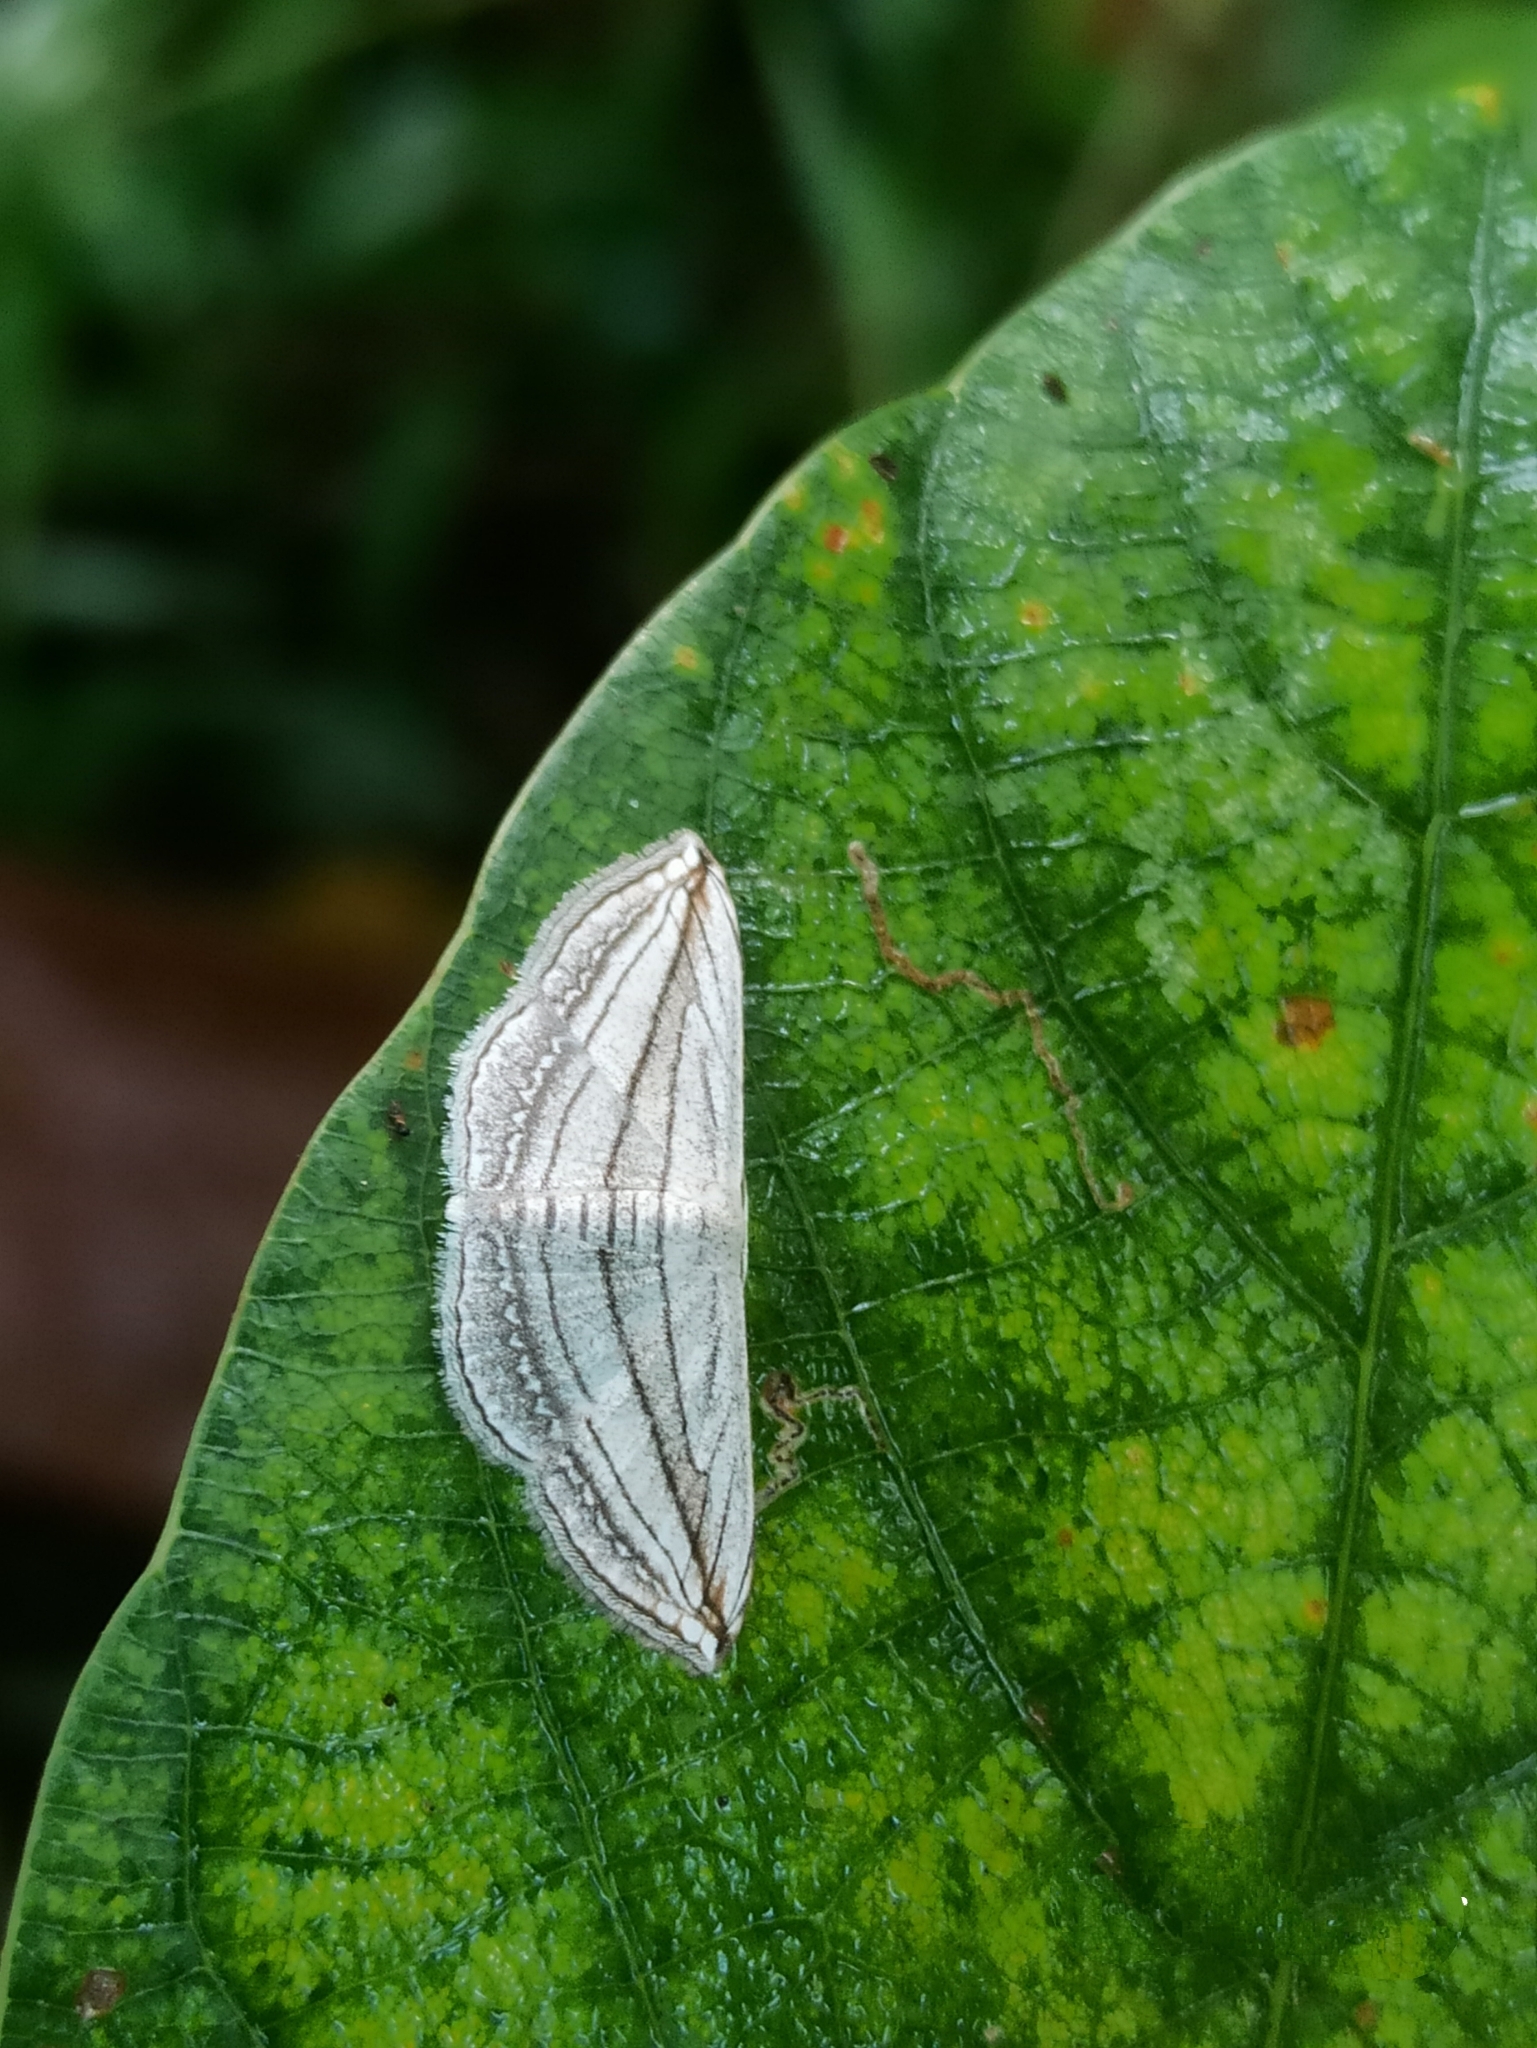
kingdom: Animalia
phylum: Arthropoda
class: Insecta
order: Lepidoptera
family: Geometridae
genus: Scopula
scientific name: Scopula opicata
